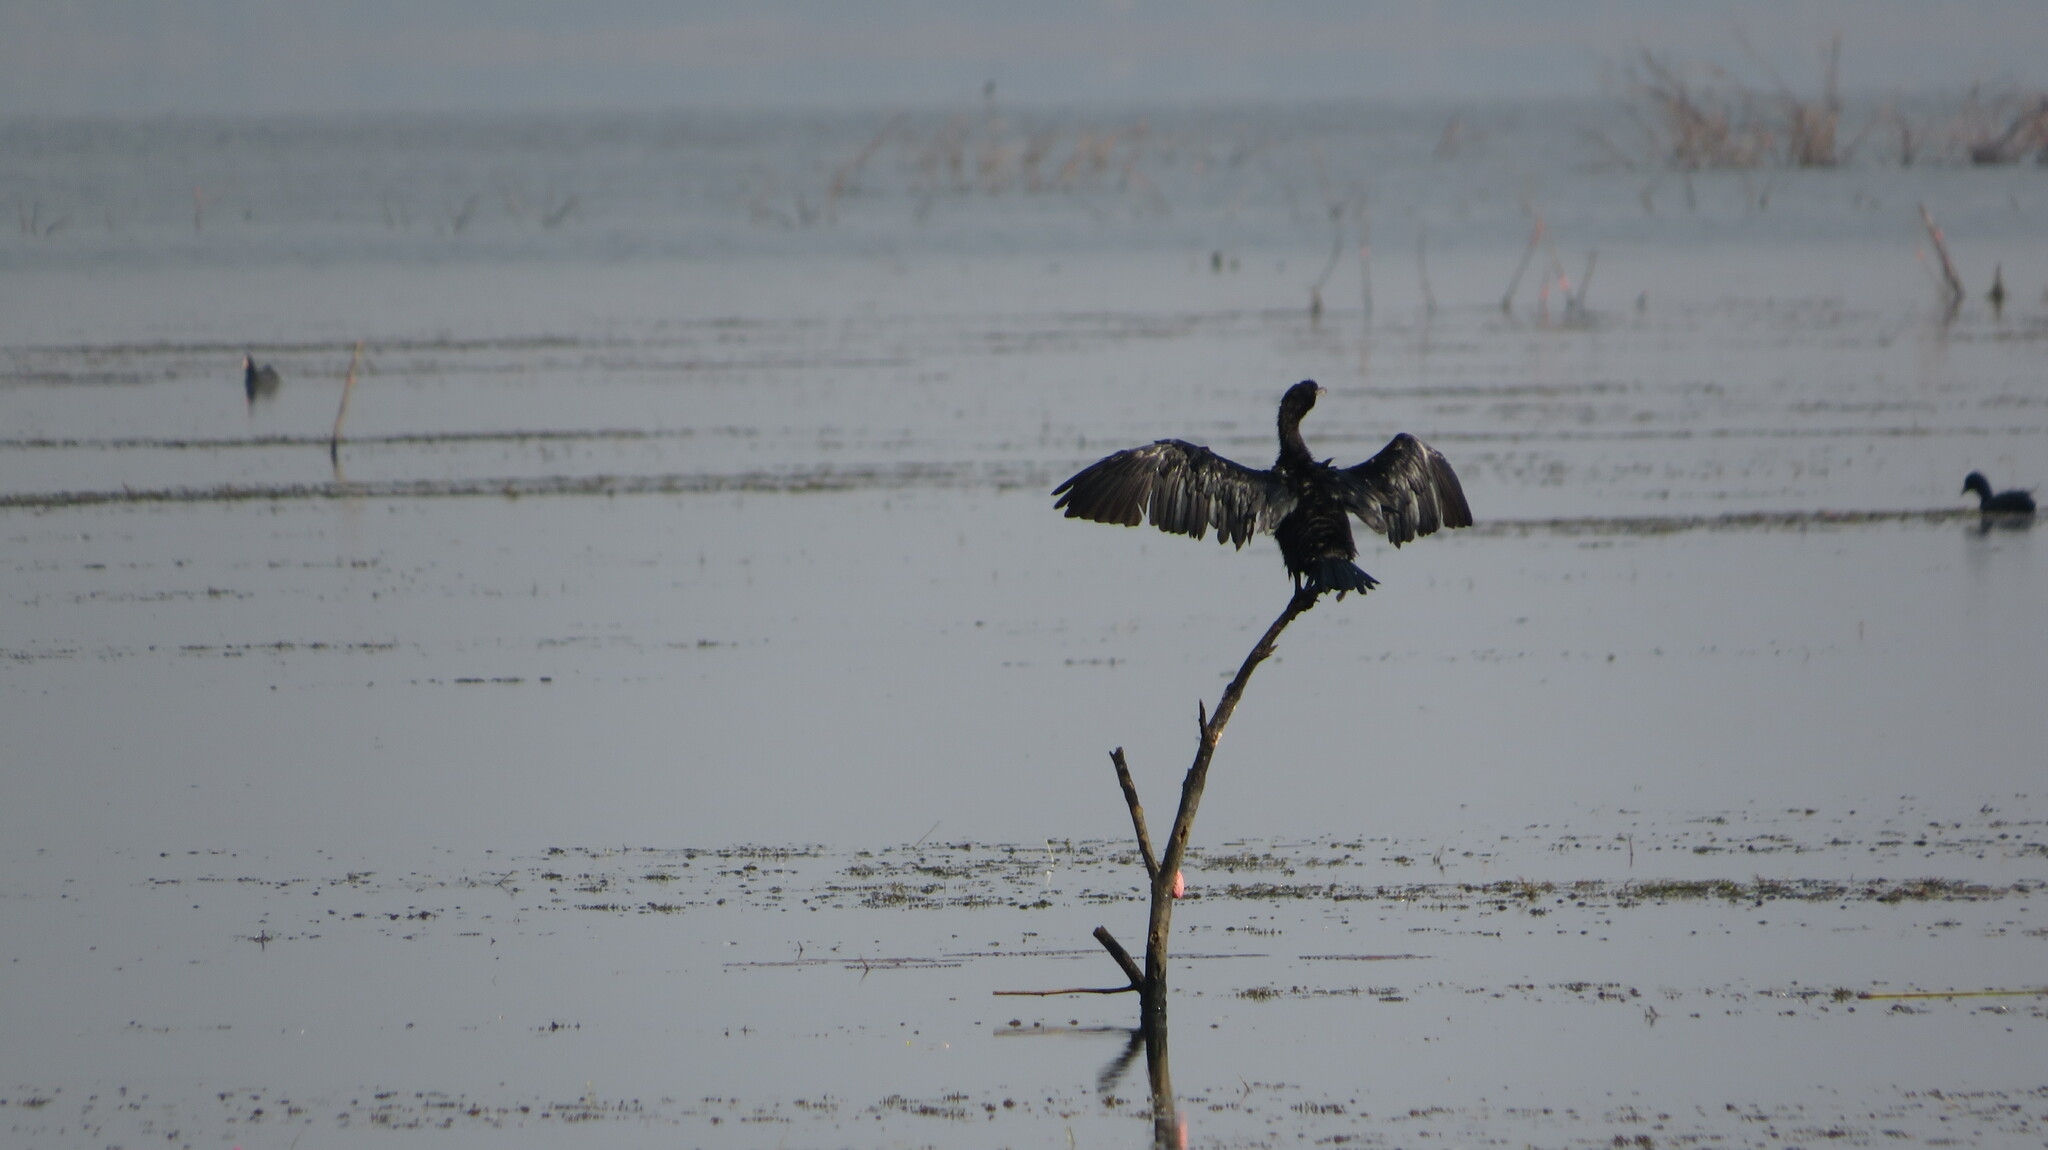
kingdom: Animalia
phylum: Chordata
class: Aves
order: Suliformes
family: Phalacrocoracidae
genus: Microcarbo
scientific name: Microcarbo niger
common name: Little cormorant
